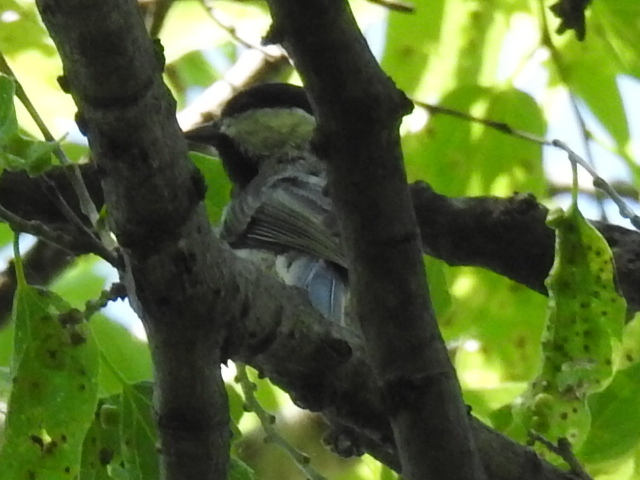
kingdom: Animalia
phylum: Chordata
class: Aves
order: Passeriformes
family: Paridae
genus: Poecile
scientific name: Poecile carolinensis
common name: Carolina chickadee
